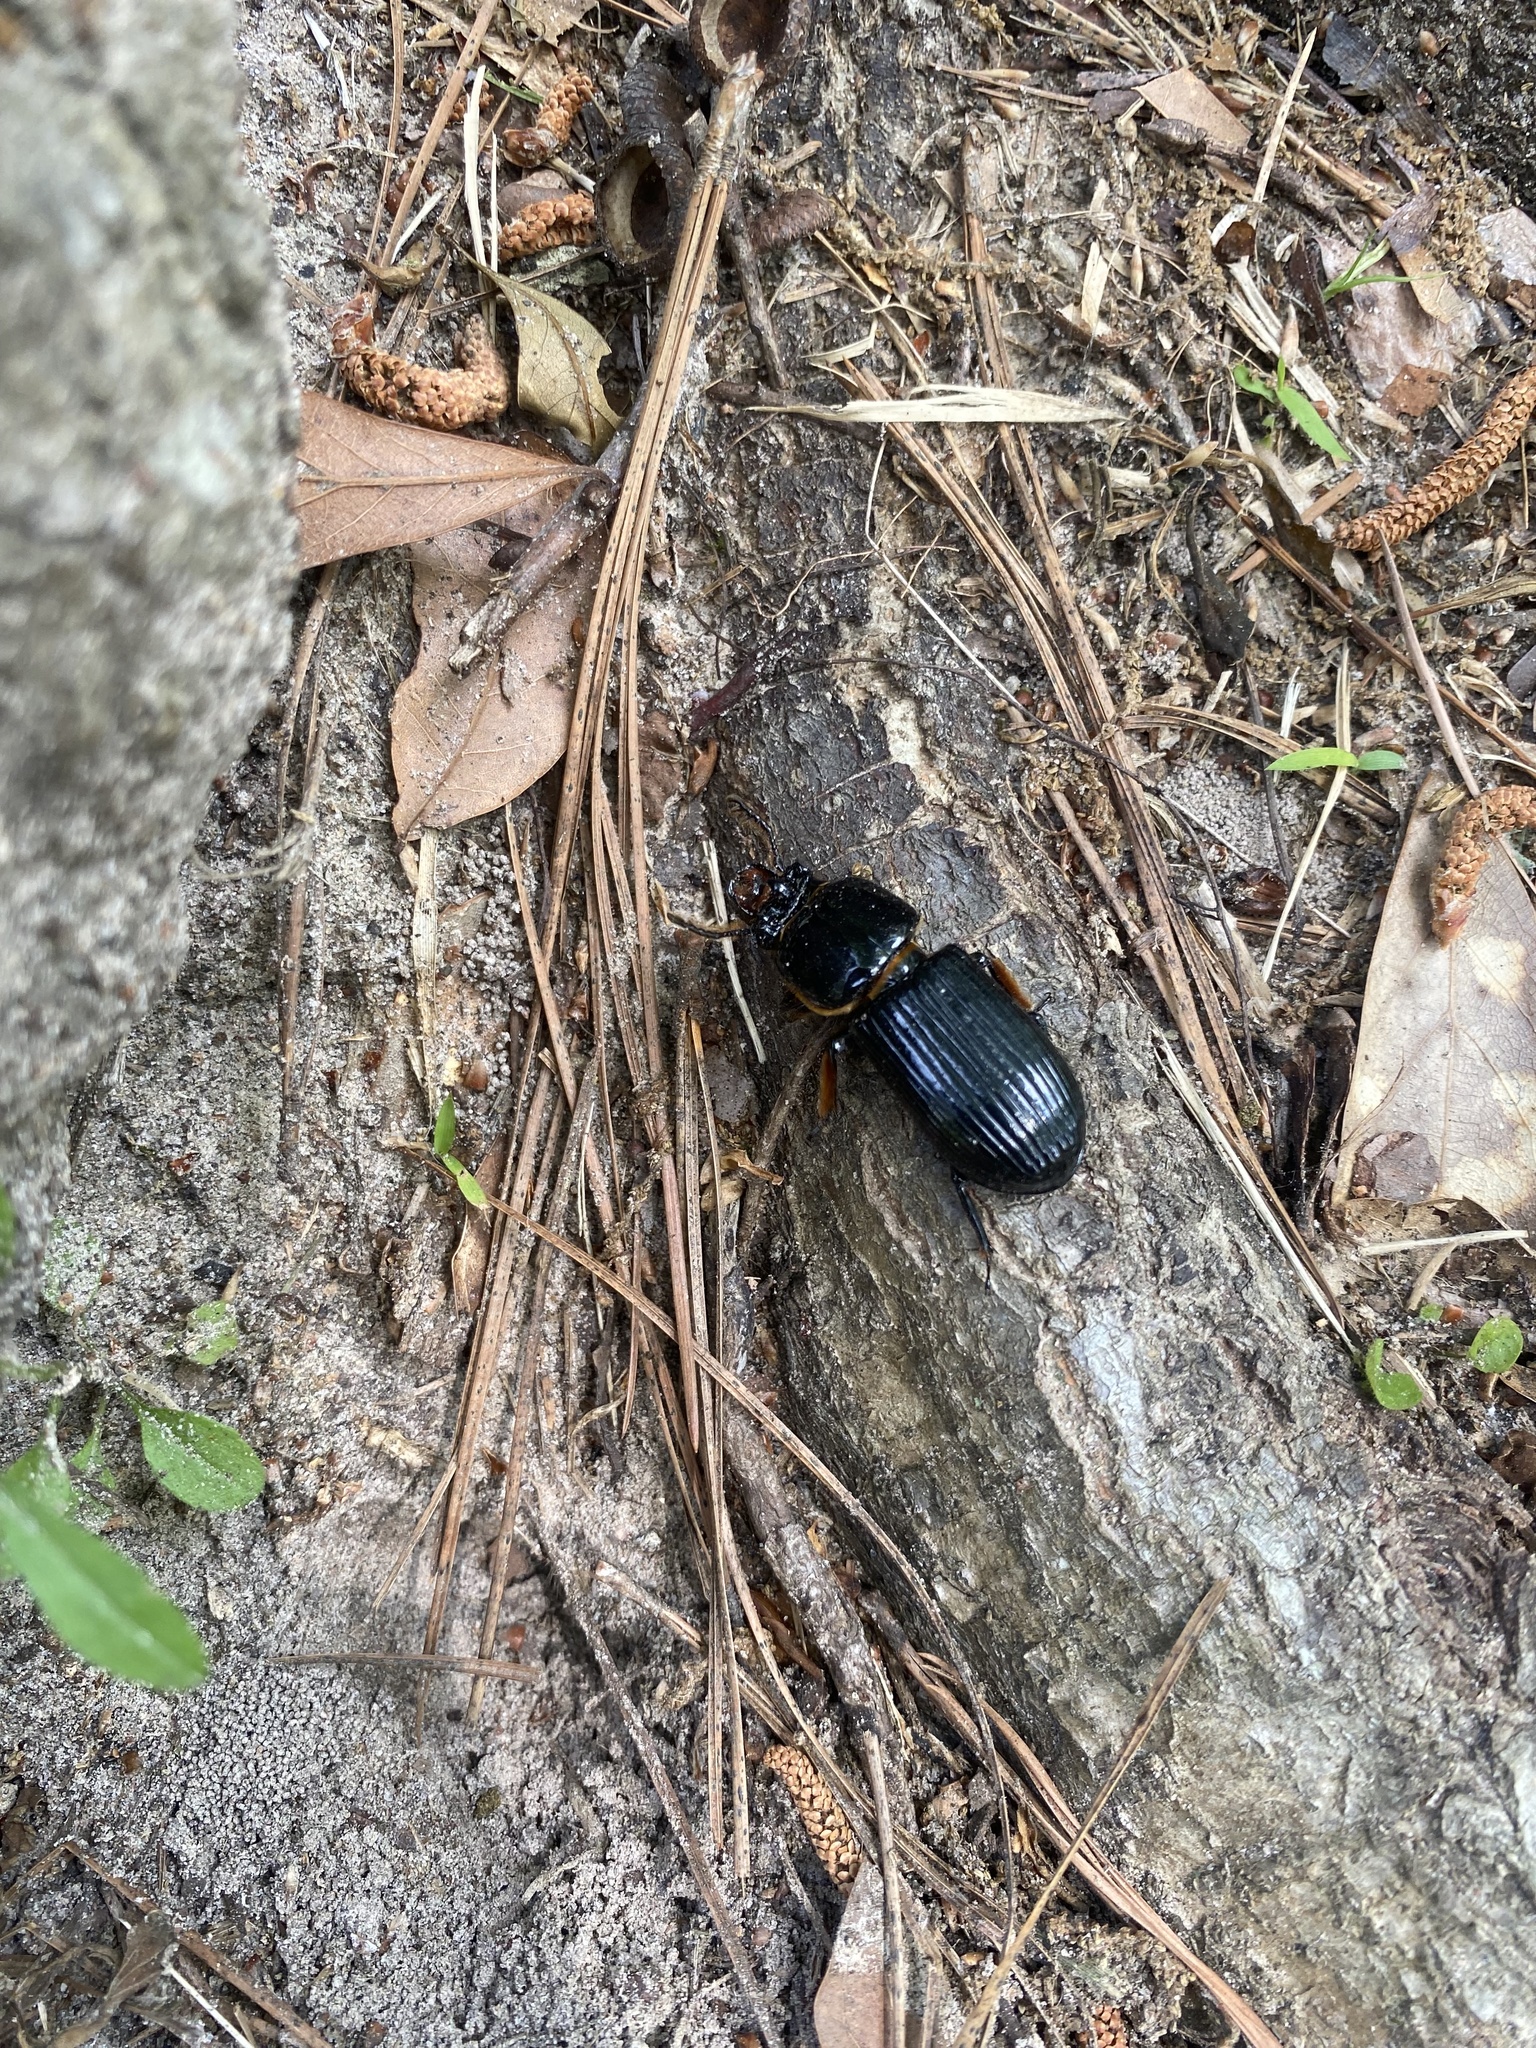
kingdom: Animalia
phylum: Arthropoda
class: Insecta
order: Coleoptera
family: Passalidae
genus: Odontotaenius
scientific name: Odontotaenius disjunctus
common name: Patent leather beetle
